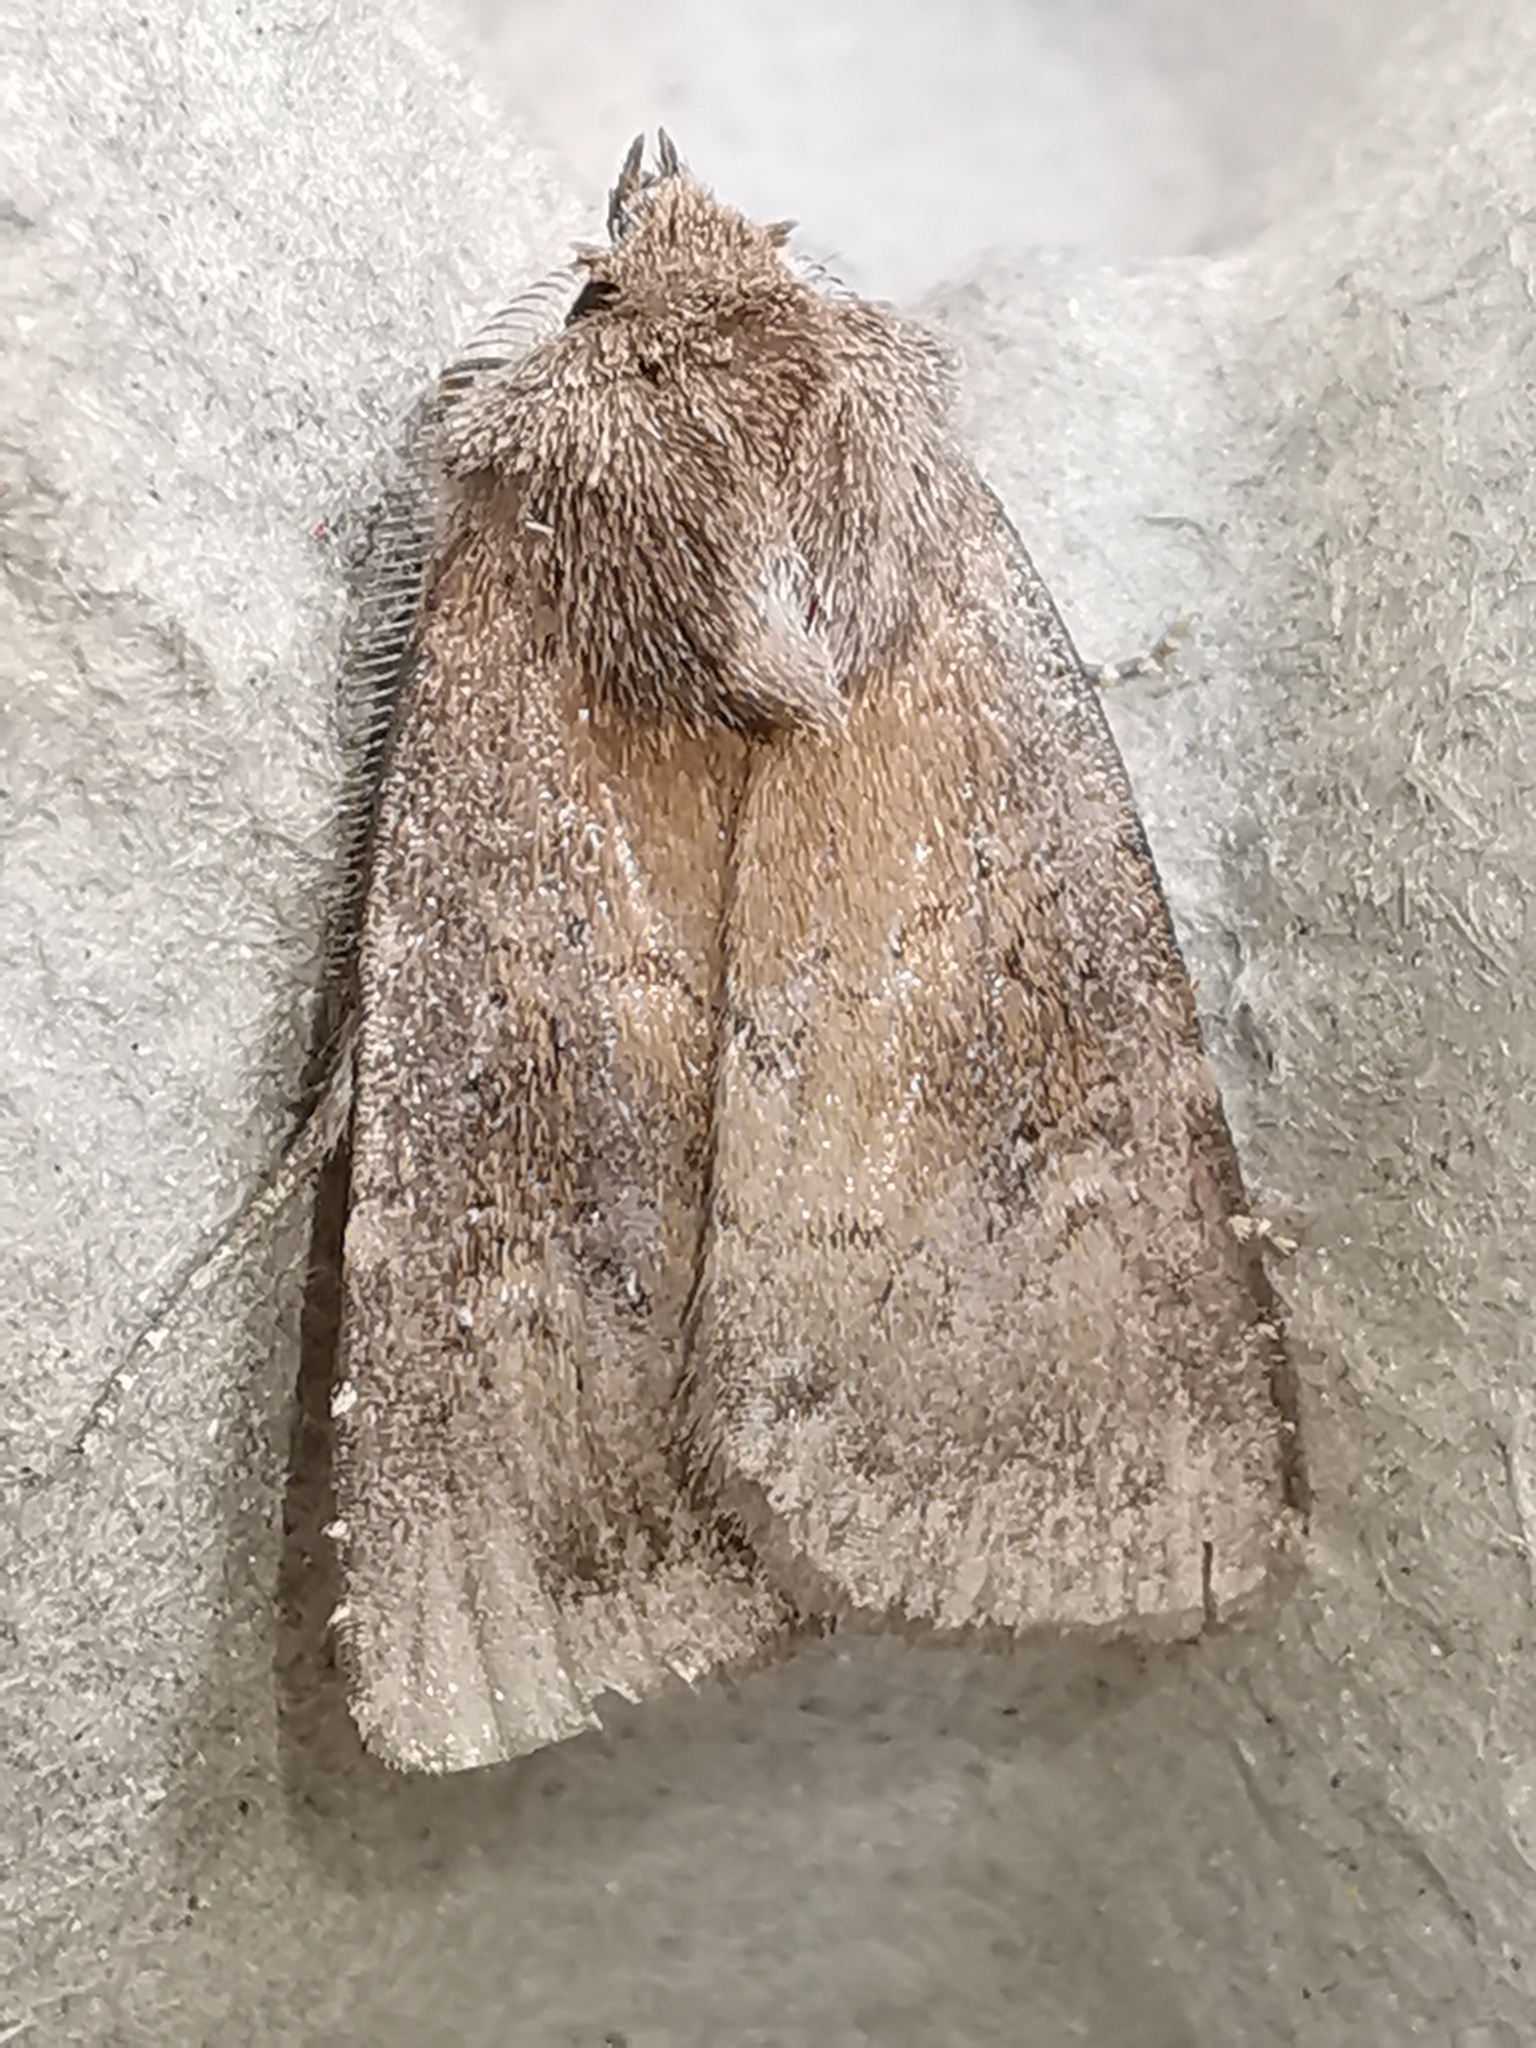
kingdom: Animalia
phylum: Arthropoda
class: Insecta
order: Lepidoptera
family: Noctuidae
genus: Charanyca
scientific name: Charanyca ferruginea
